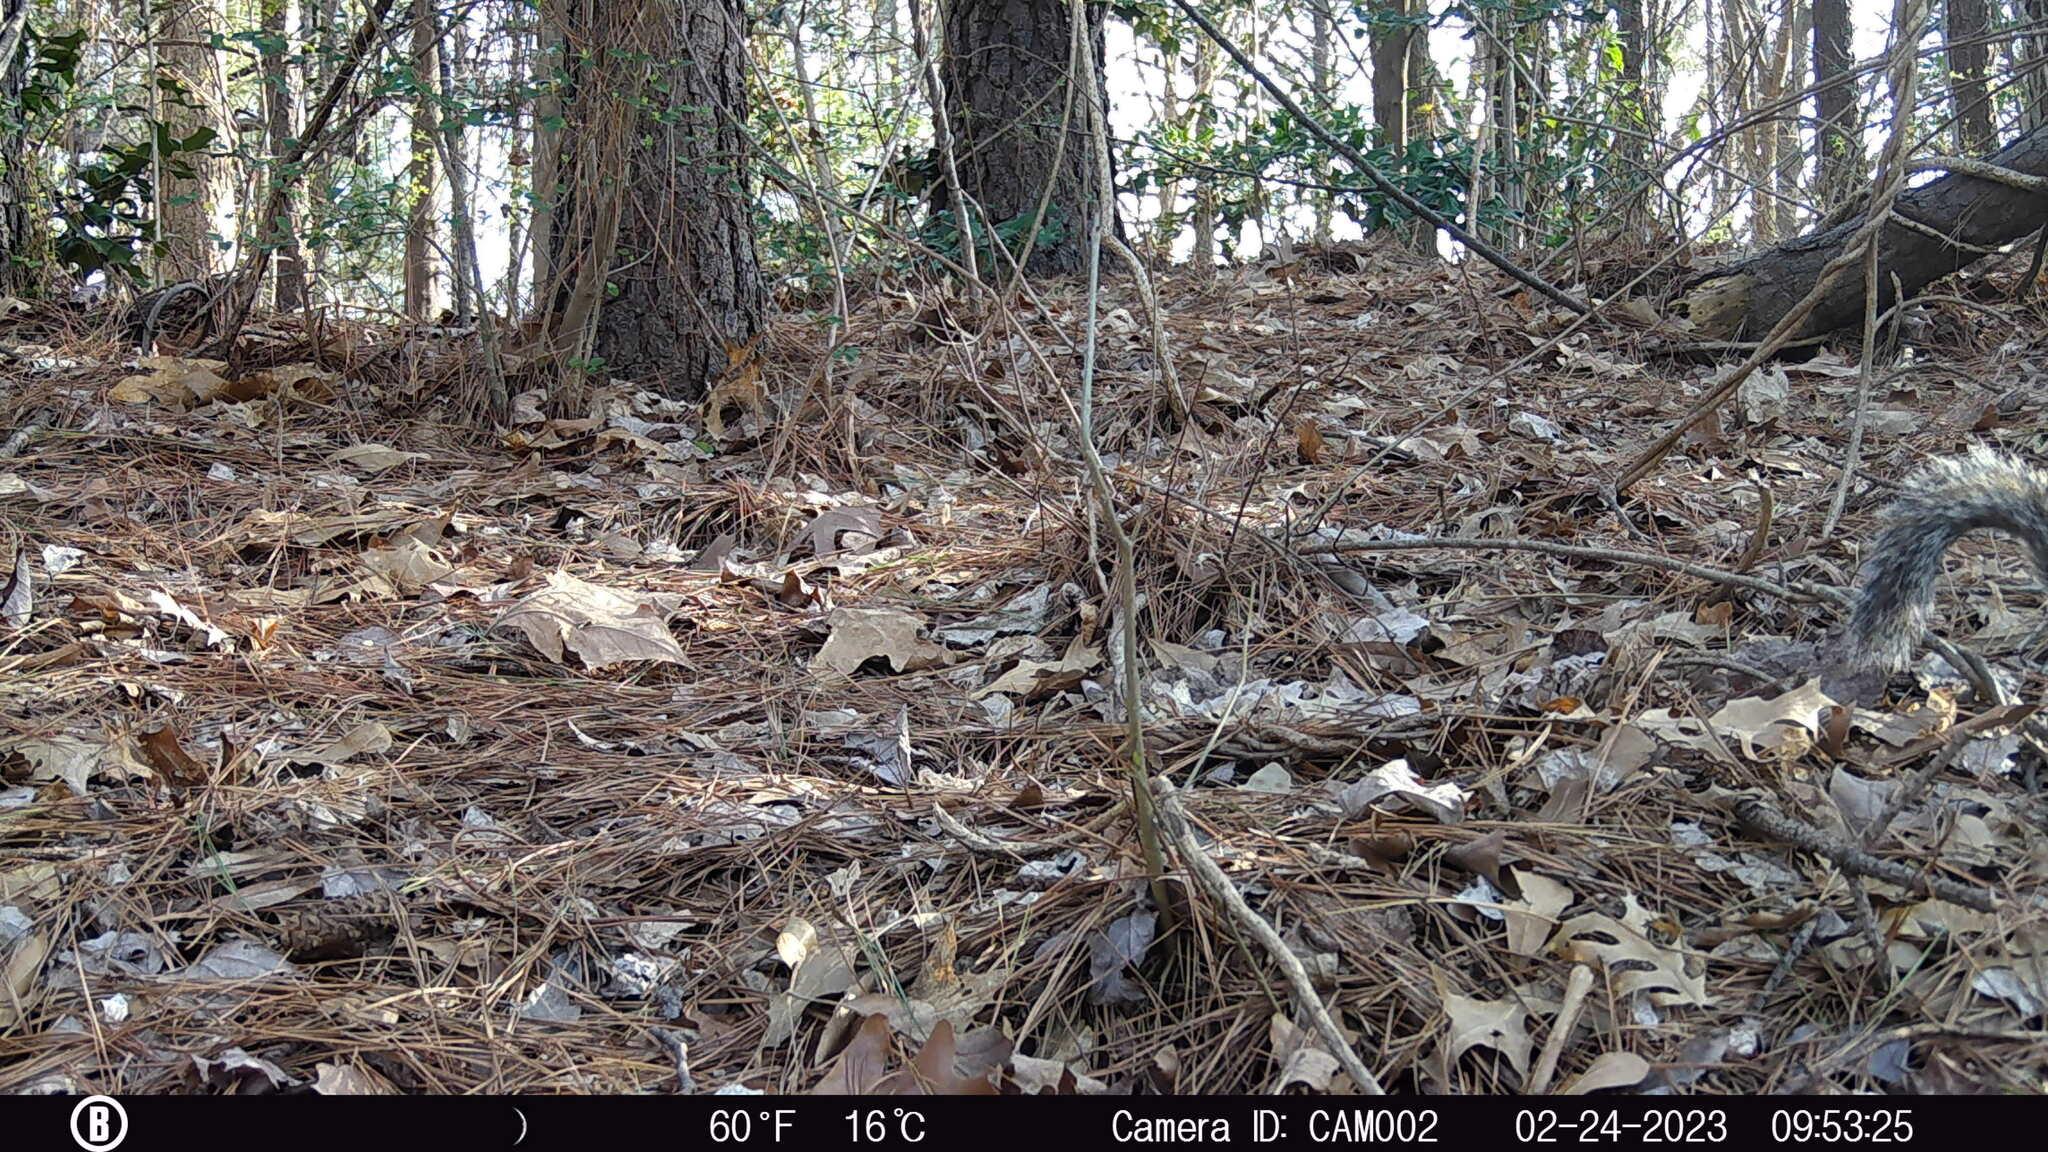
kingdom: Animalia
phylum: Chordata
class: Mammalia
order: Rodentia
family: Sciuridae
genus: Sciurus
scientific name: Sciurus carolinensis
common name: Eastern gray squirrel
